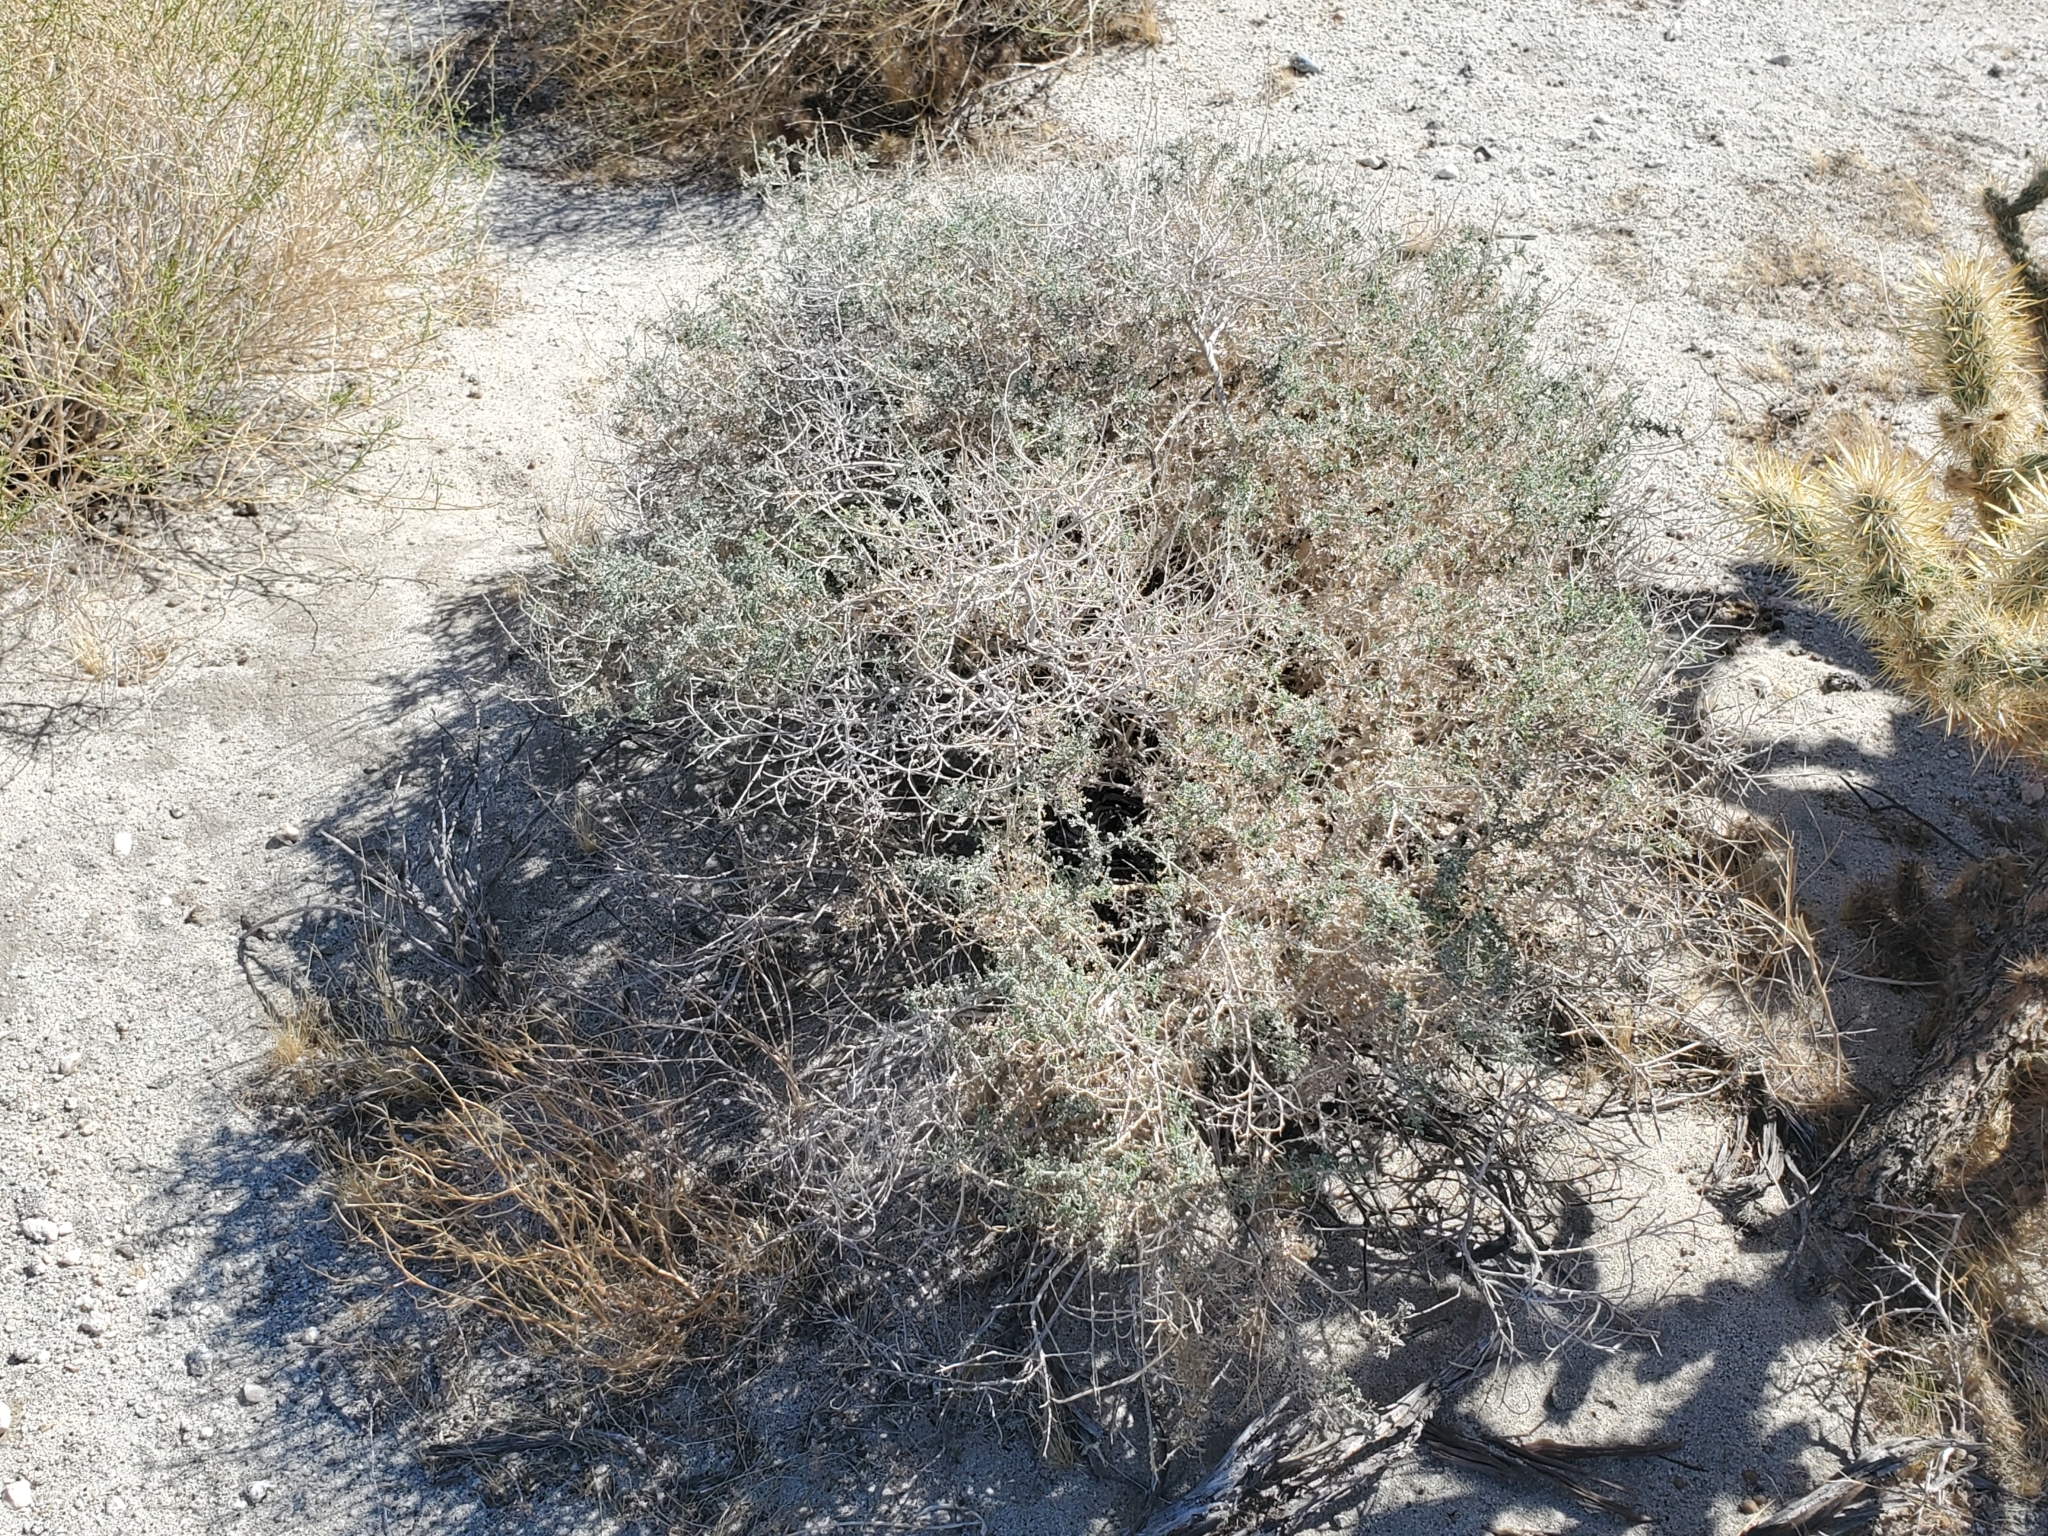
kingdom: Plantae
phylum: Tracheophyta
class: Magnoliopsida
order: Asterales
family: Asteraceae
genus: Ambrosia
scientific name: Ambrosia dumosa
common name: Bur-sage
